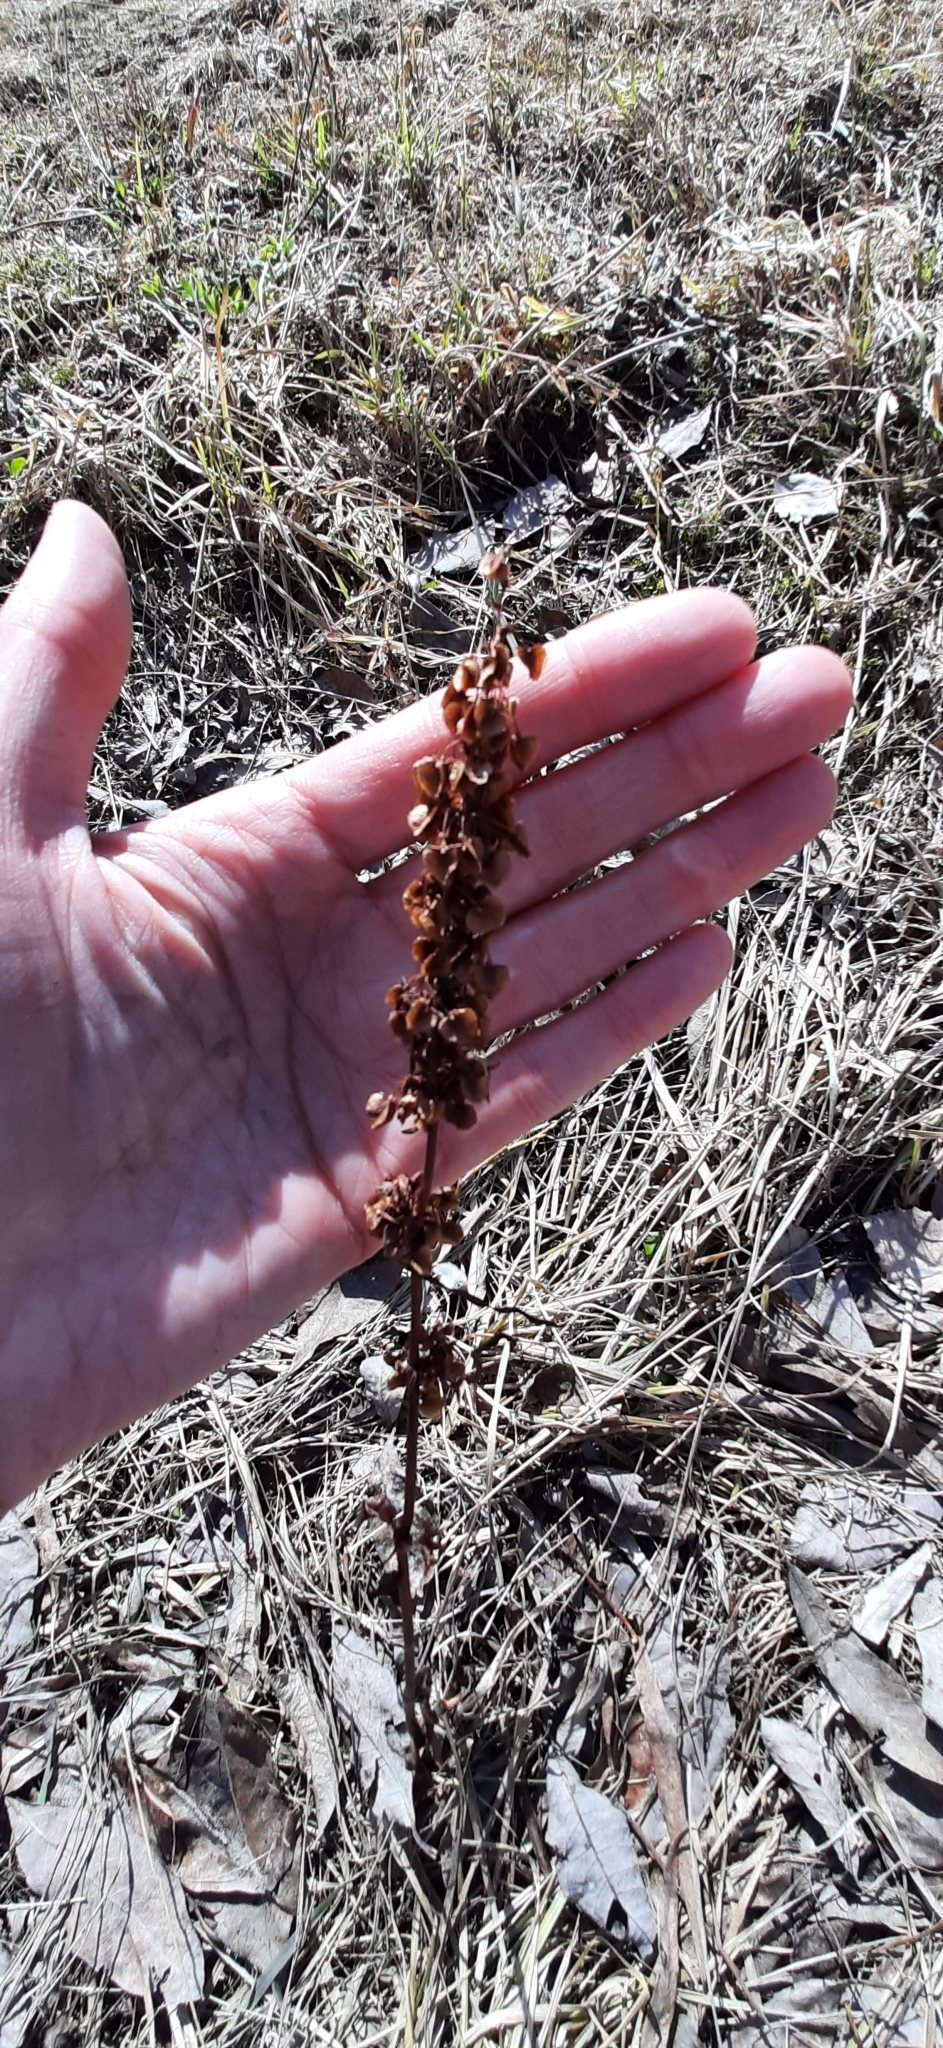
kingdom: Plantae
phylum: Tracheophyta
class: Magnoliopsida
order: Caryophyllales
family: Polygonaceae
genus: Rumex
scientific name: Rumex pseudonatronatus
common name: Field dock
